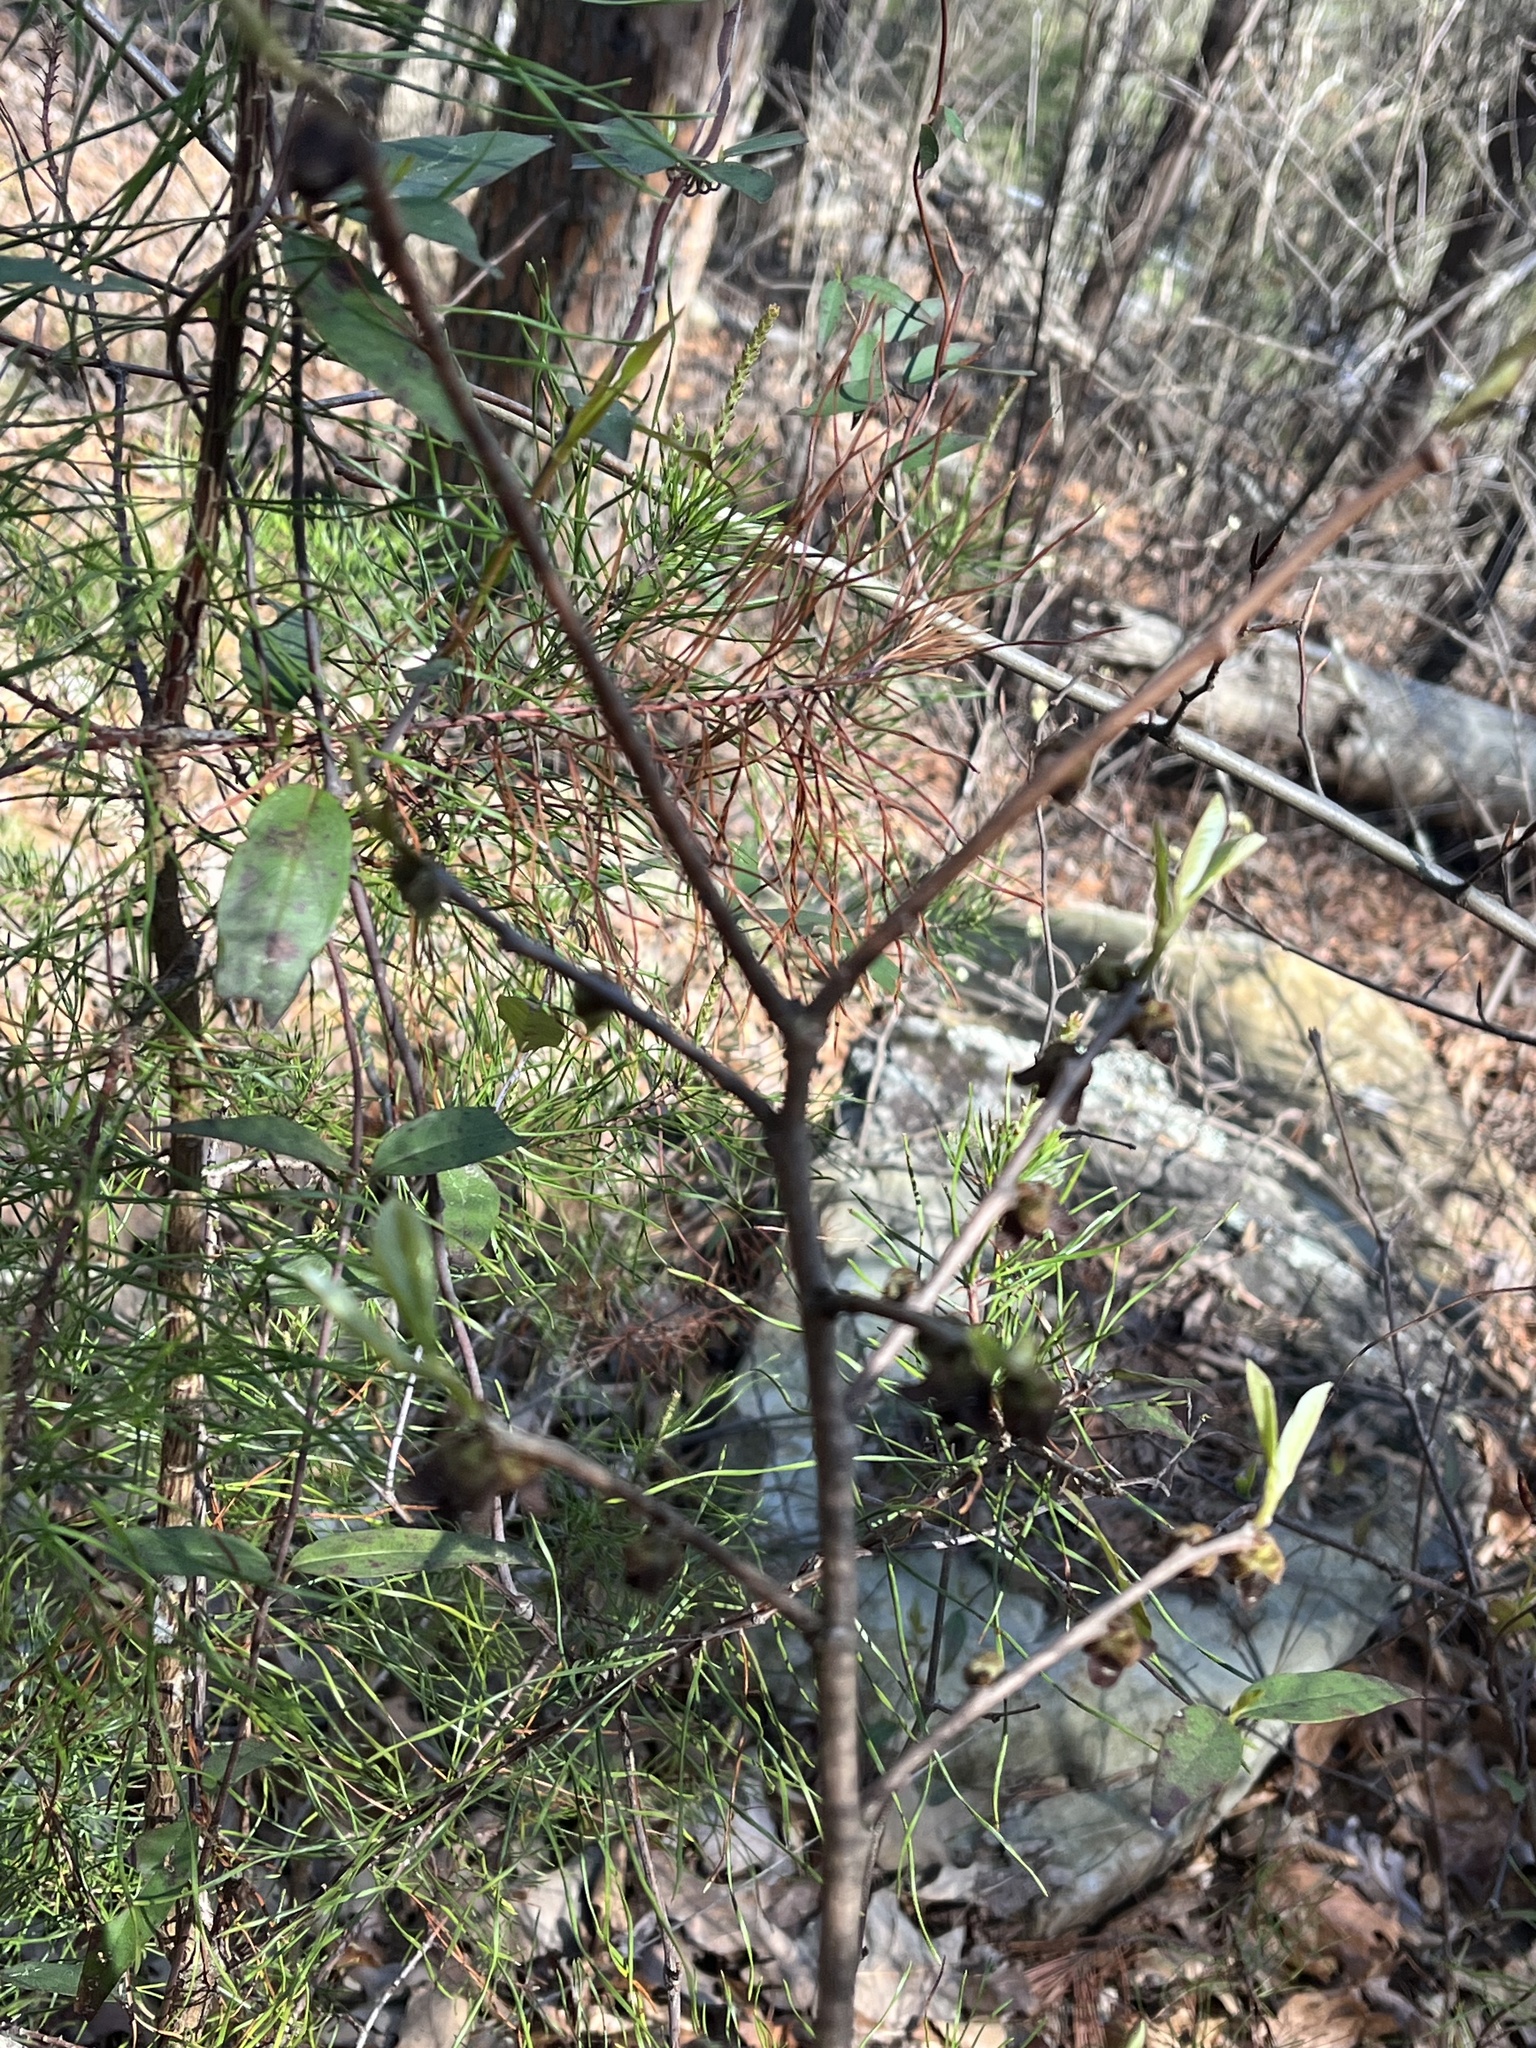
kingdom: Plantae
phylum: Tracheophyta
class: Magnoliopsida
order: Magnoliales
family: Annonaceae
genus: Asimina
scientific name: Asimina parviflora
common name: Dwarf pawpaw
